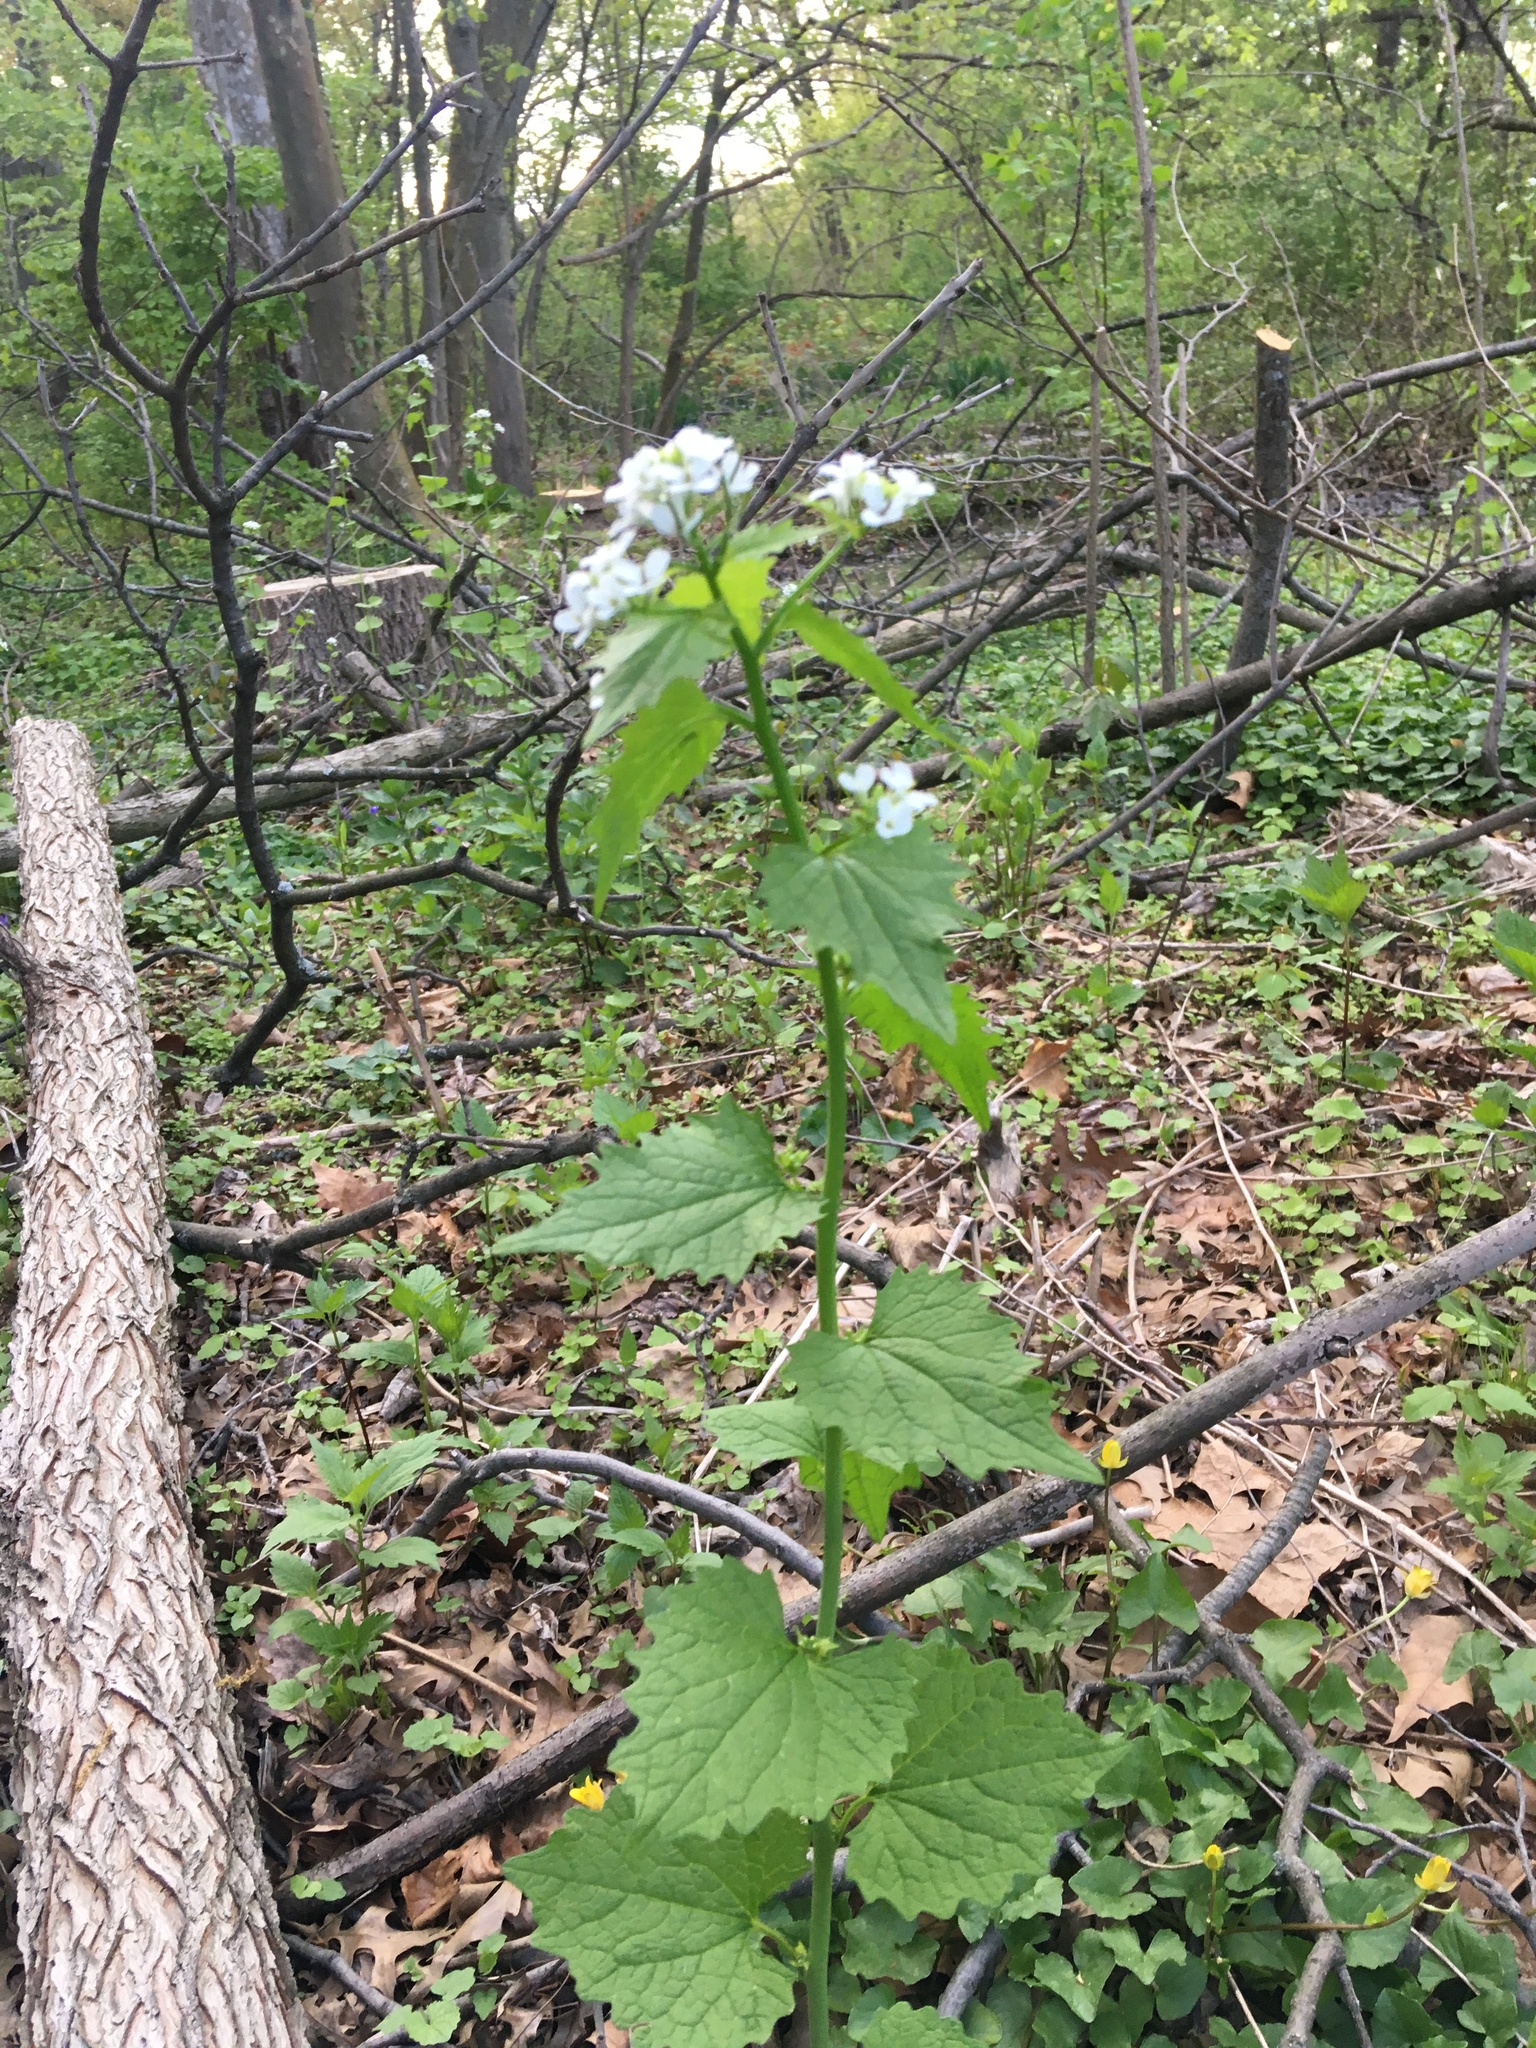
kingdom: Plantae
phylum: Tracheophyta
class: Magnoliopsida
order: Brassicales
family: Brassicaceae
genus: Alliaria
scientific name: Alliaria petiolata
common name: Garlic mustard
